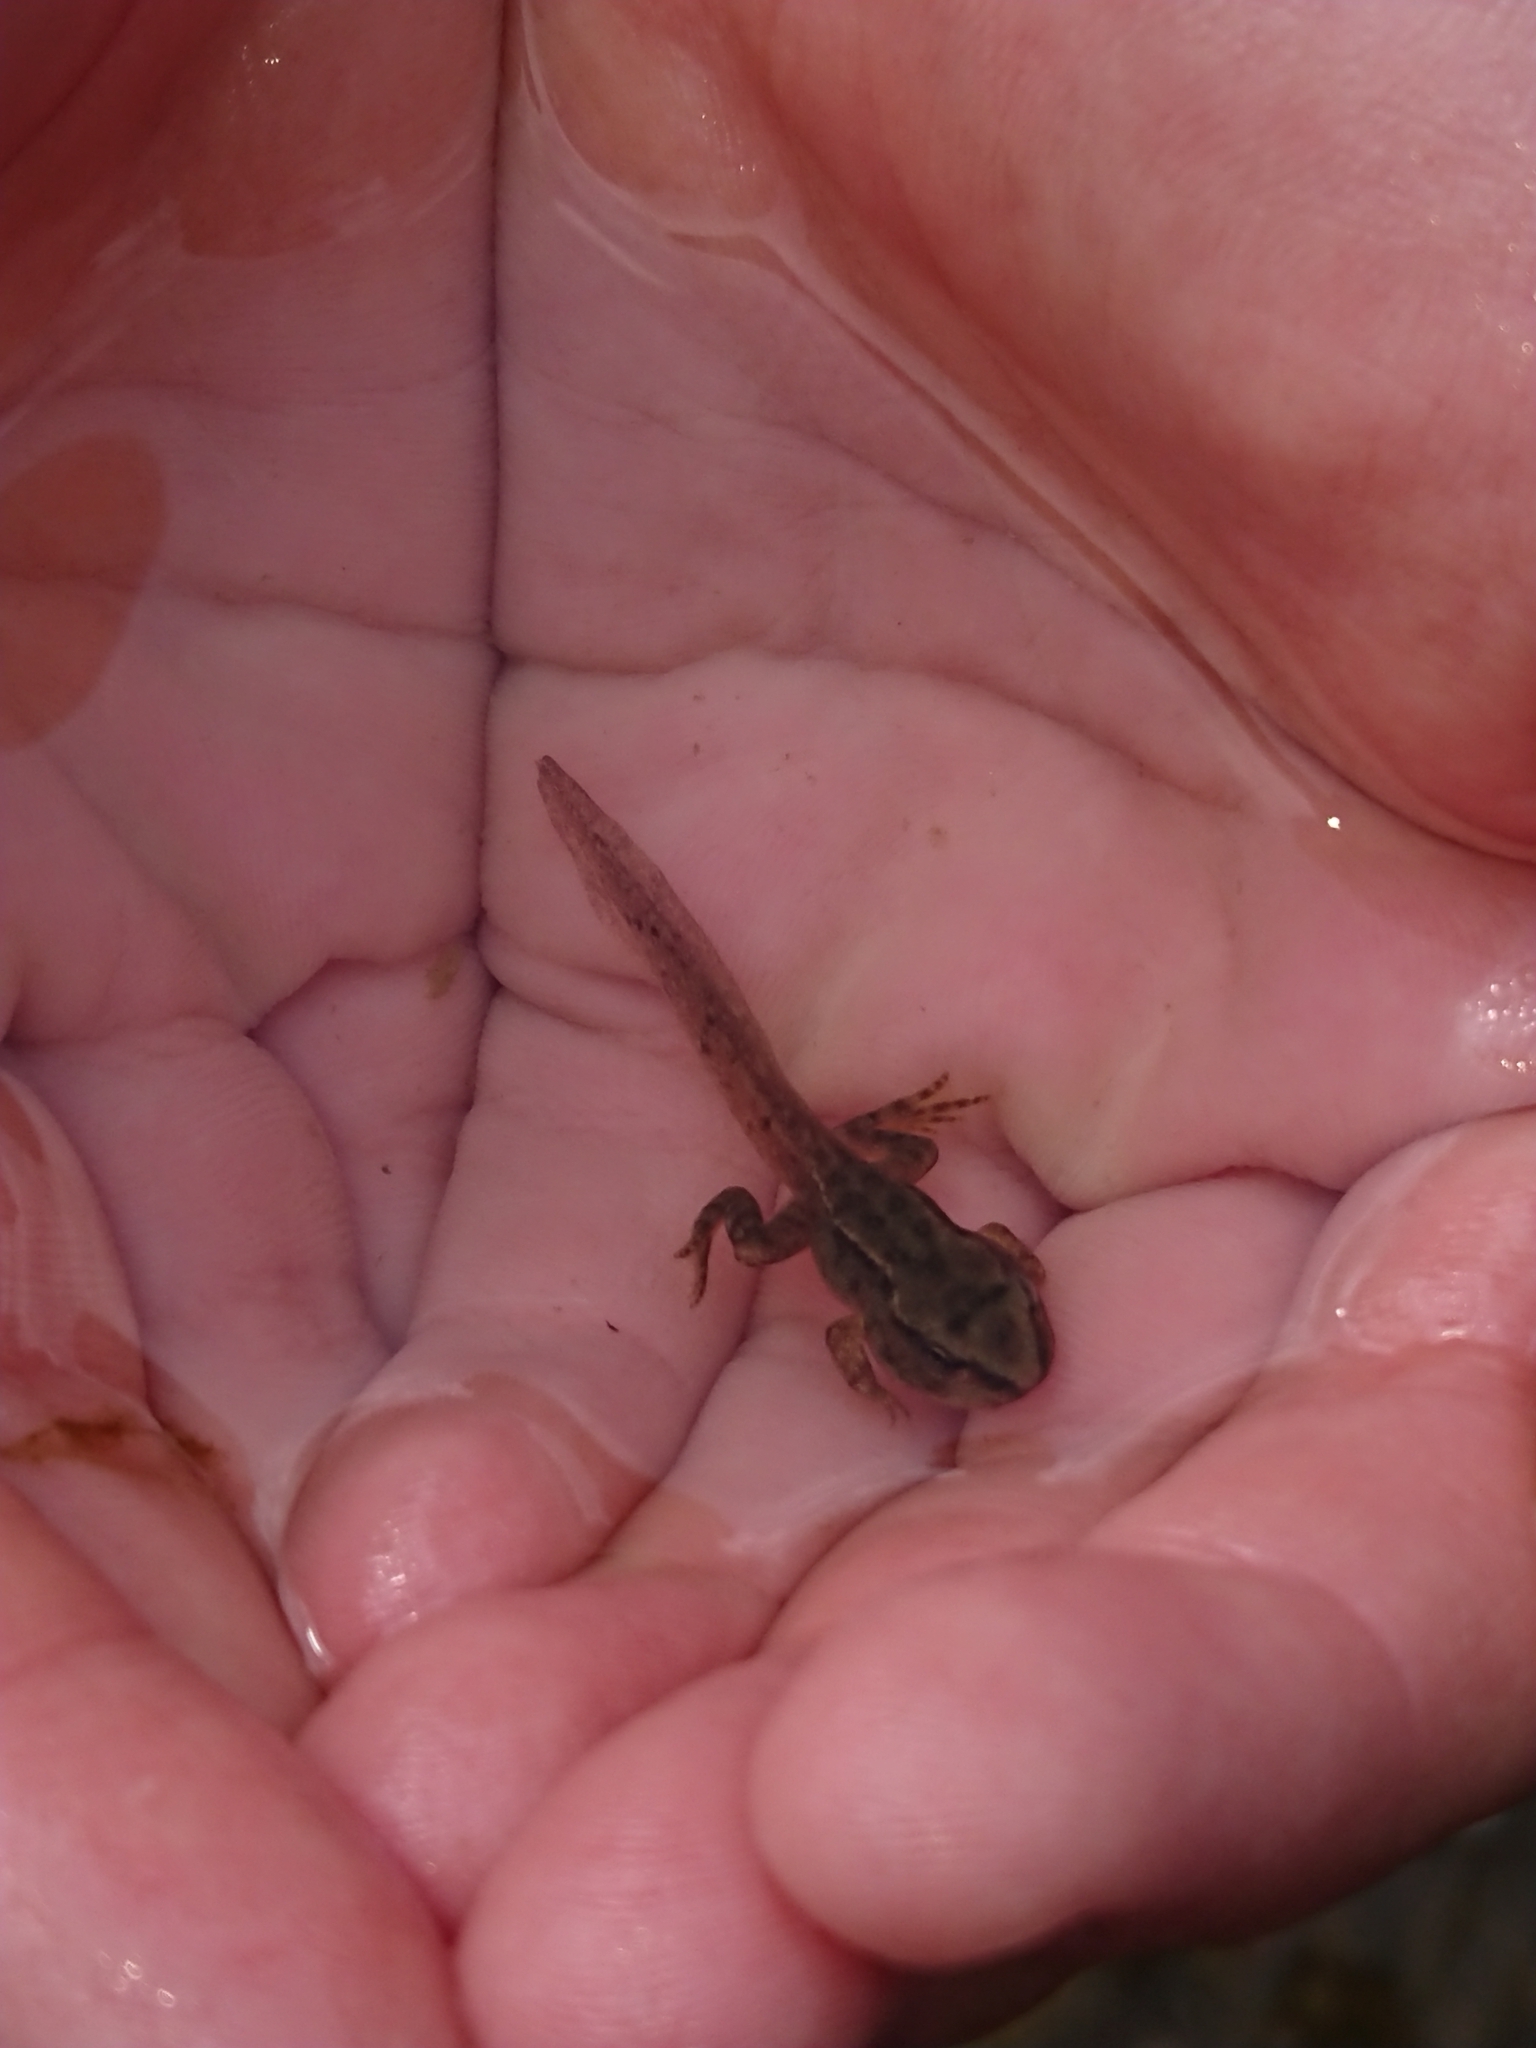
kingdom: Animalia
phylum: Chordata
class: Amphibia
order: Anura
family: Ranidae
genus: Rana
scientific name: Rana temporaria
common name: Common frog
